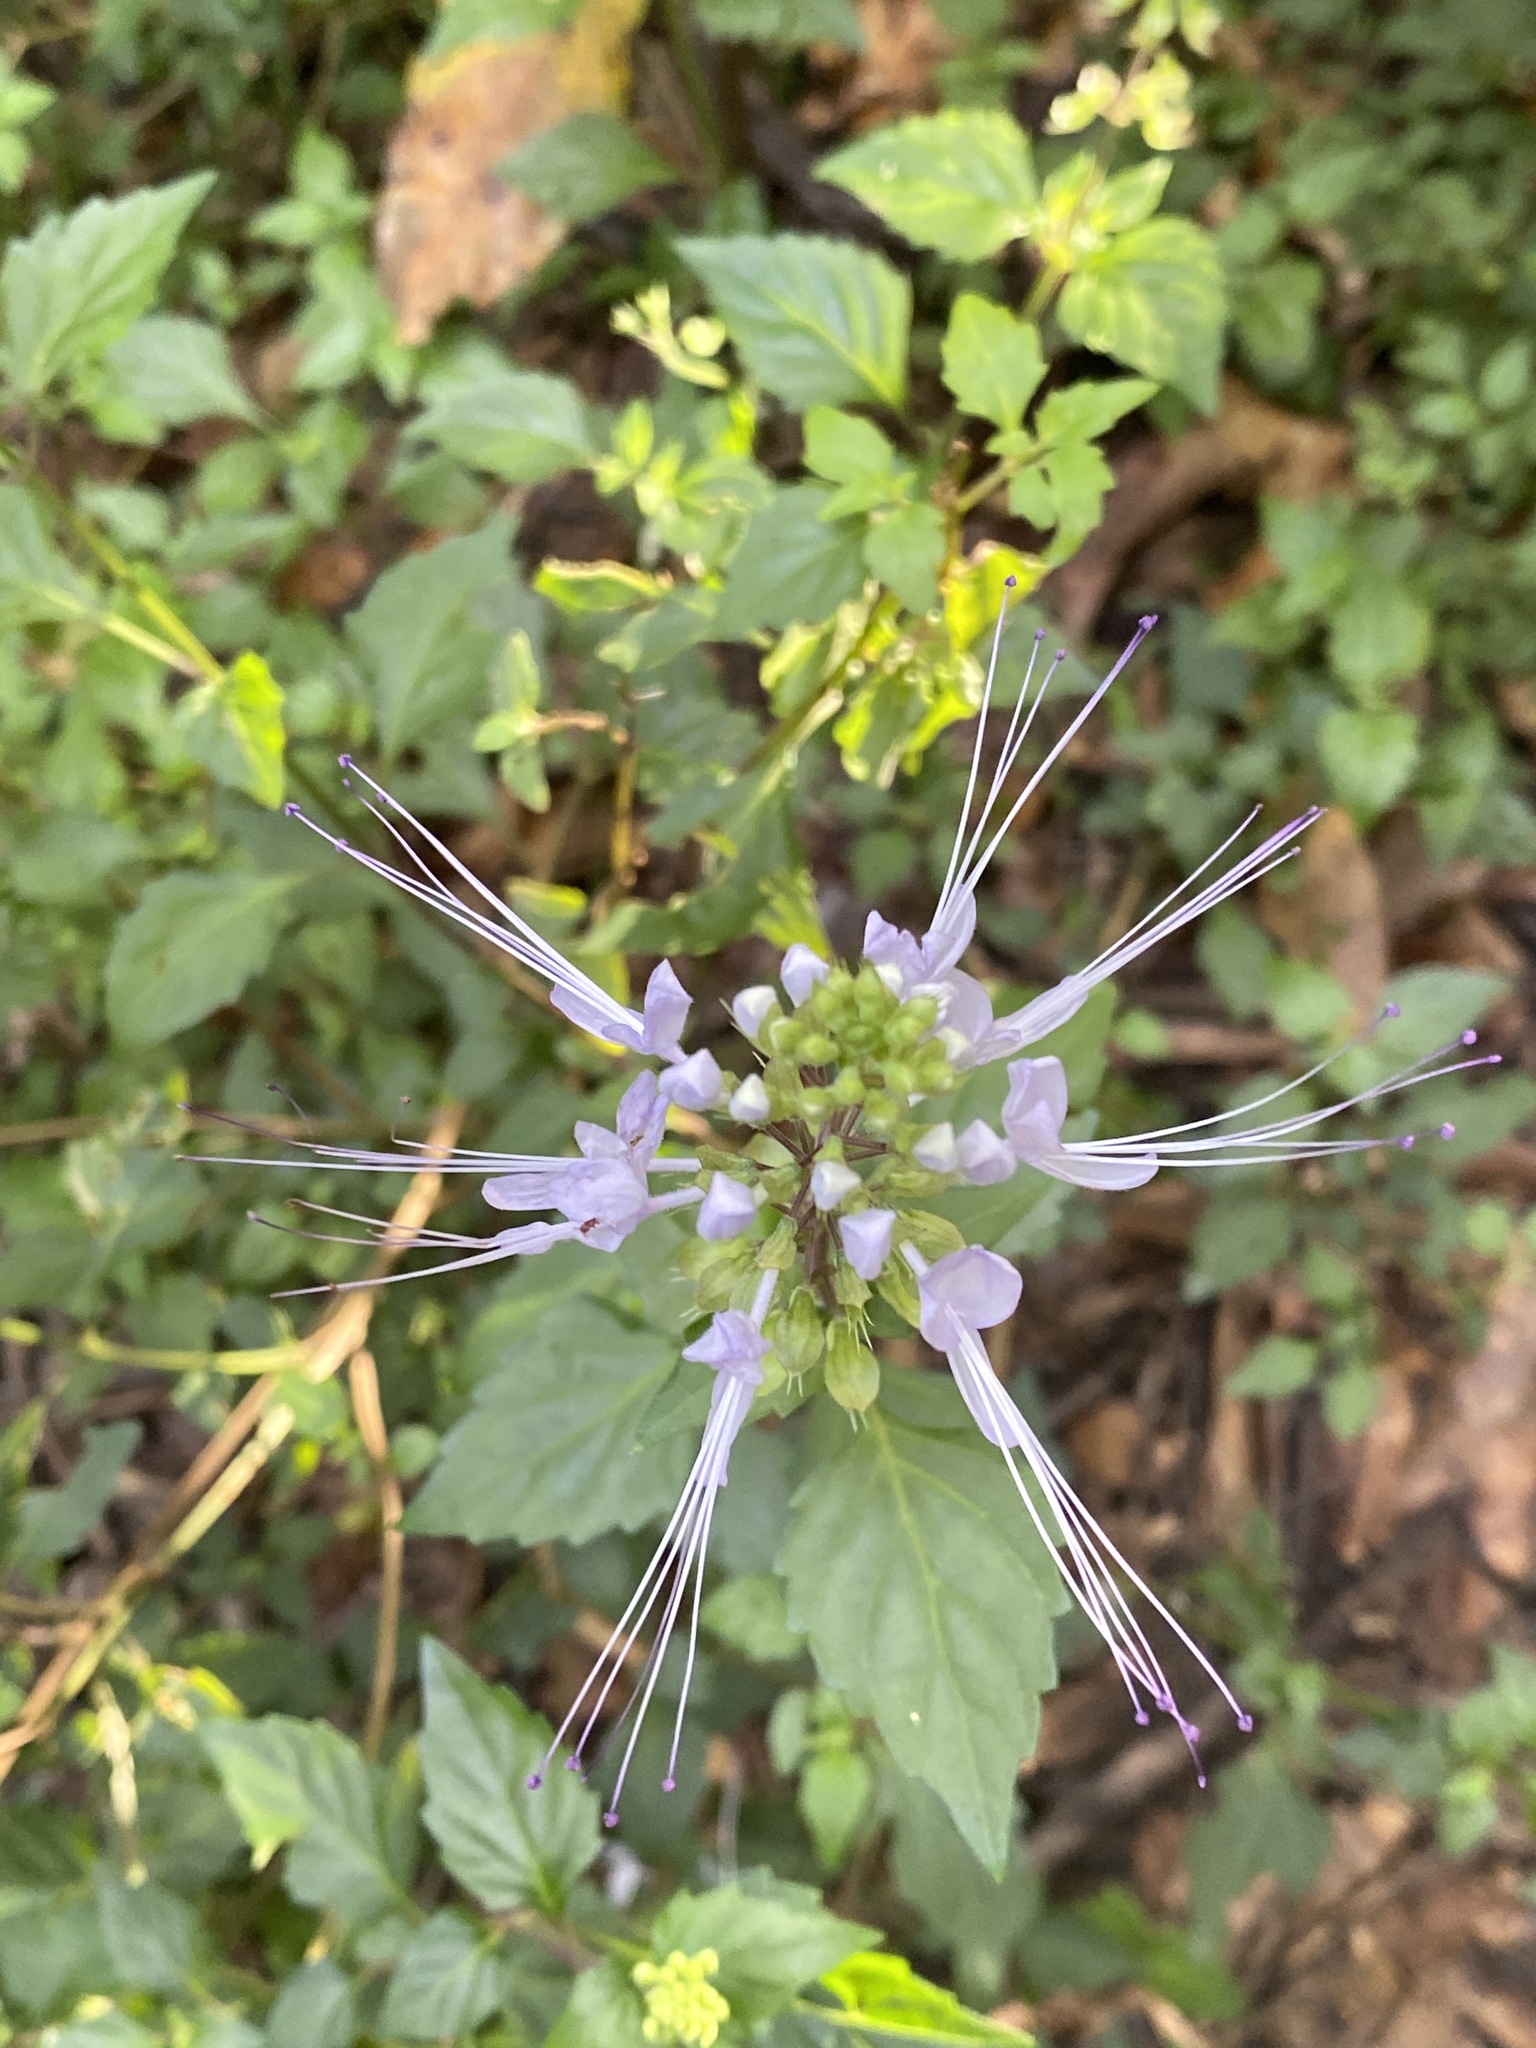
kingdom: Plantae
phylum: Tracheophyta
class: Magnoliopsida
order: Lamiales
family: Lamiaceae
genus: Orthosiphon
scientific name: Orthosiphon aristatus
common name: Whiskerplant
